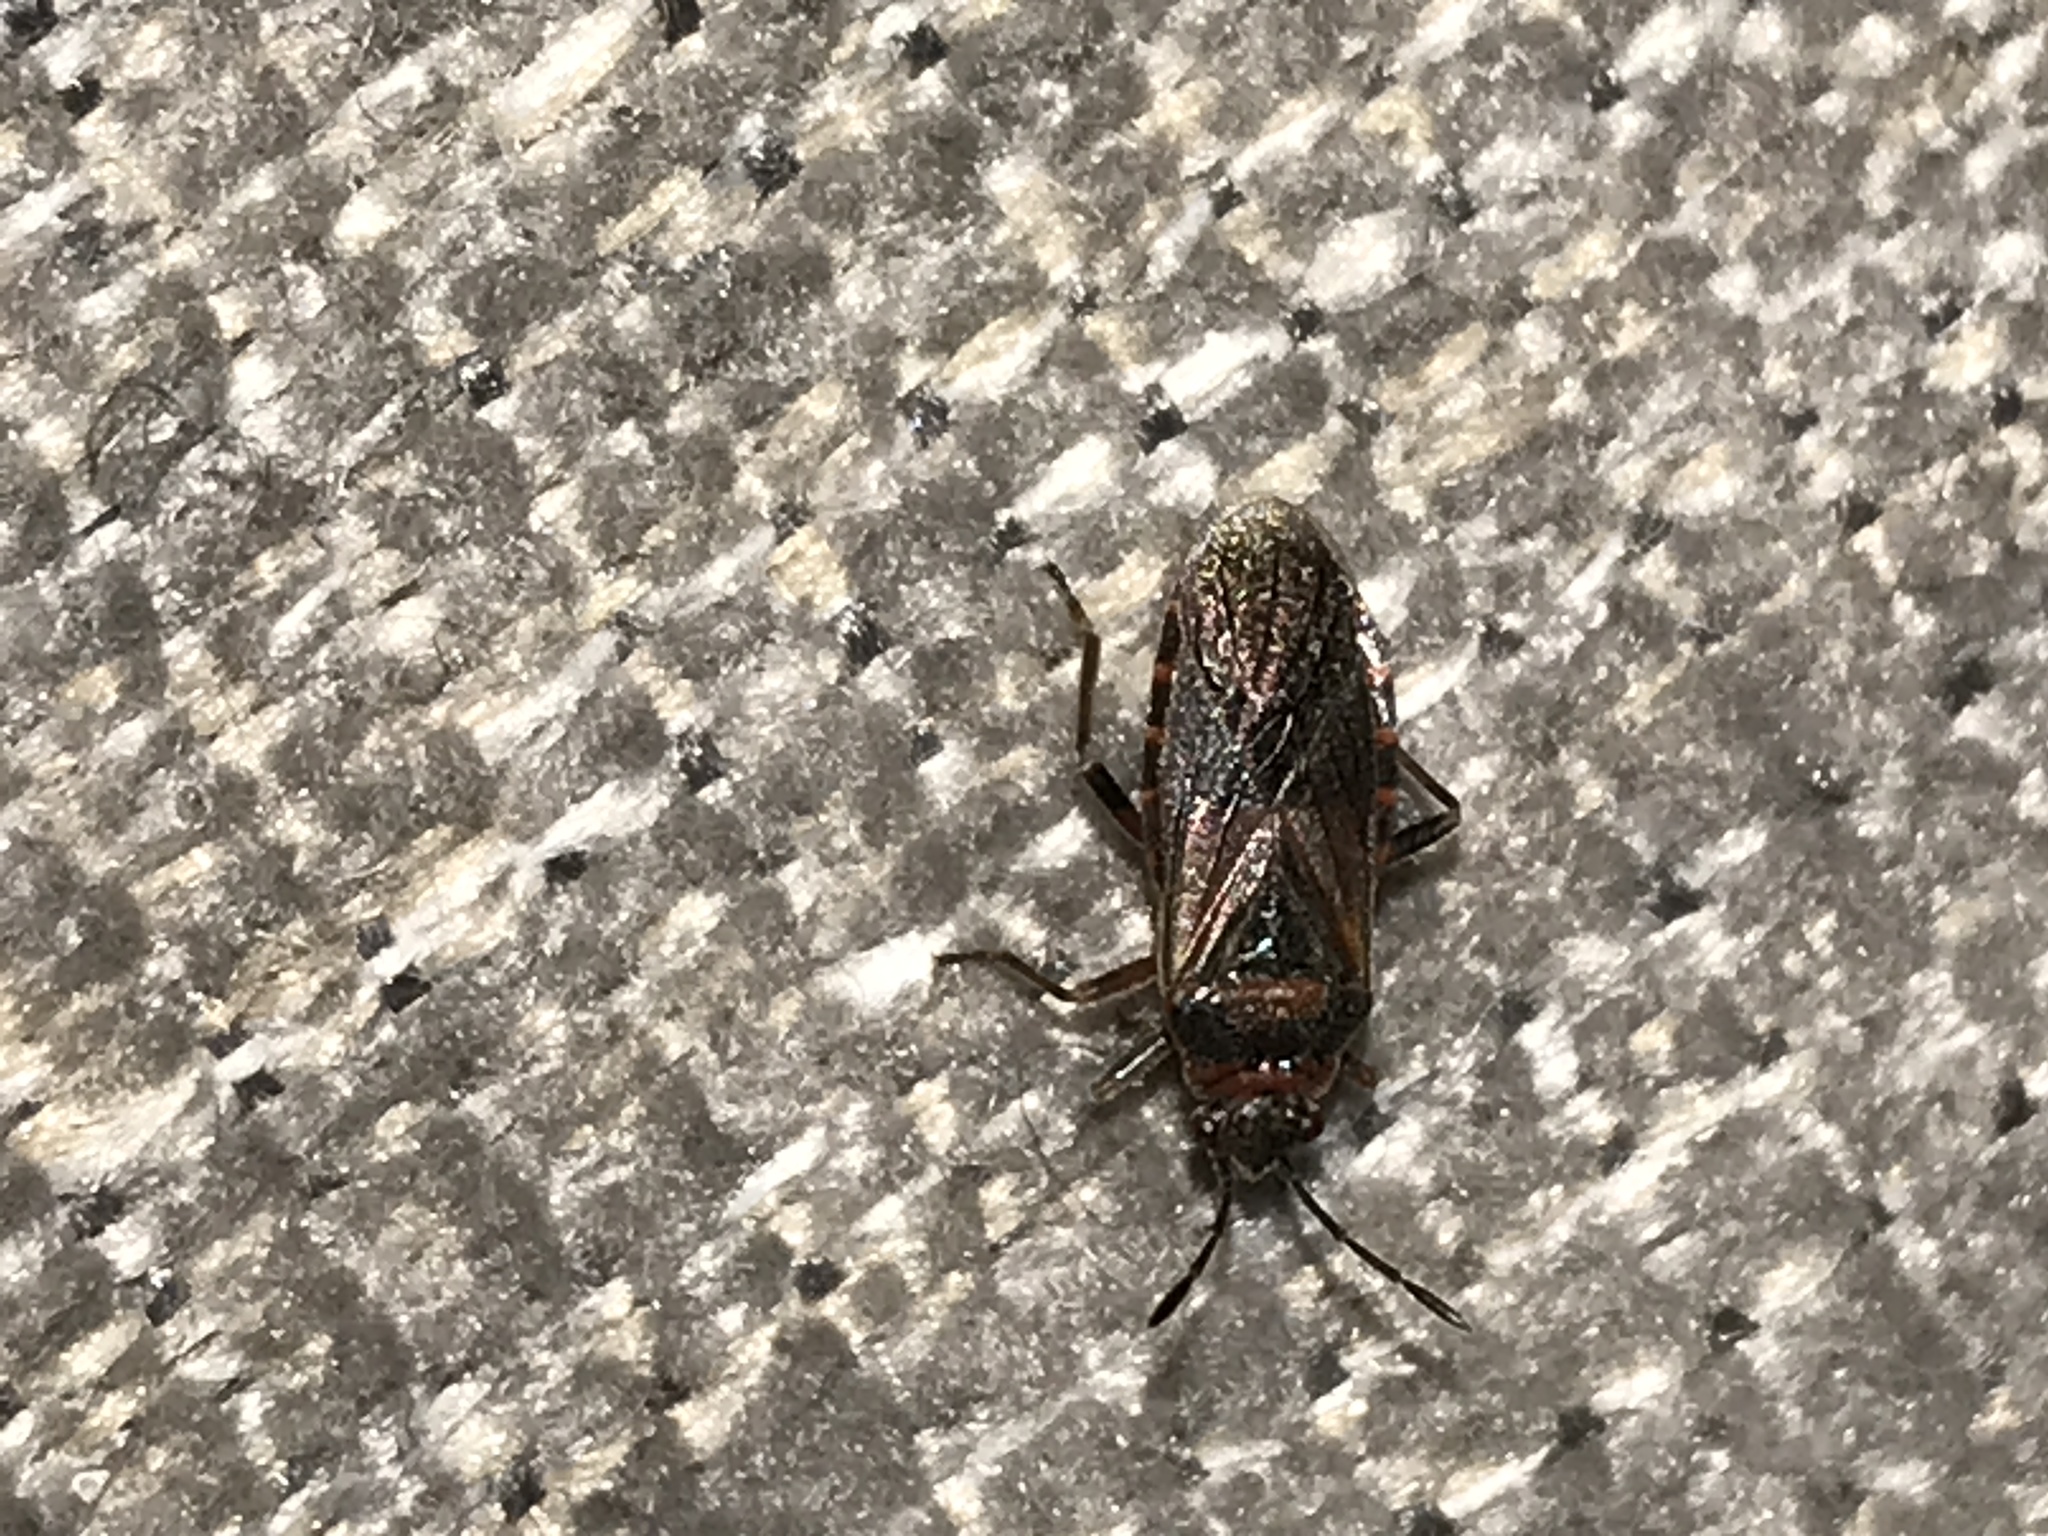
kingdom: Animalia
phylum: Arthropoda
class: Insecta
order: Hemiptera
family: Lygaeidae
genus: Arocatus
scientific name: Arocatus melanocephalus
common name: Lygaeid bug
